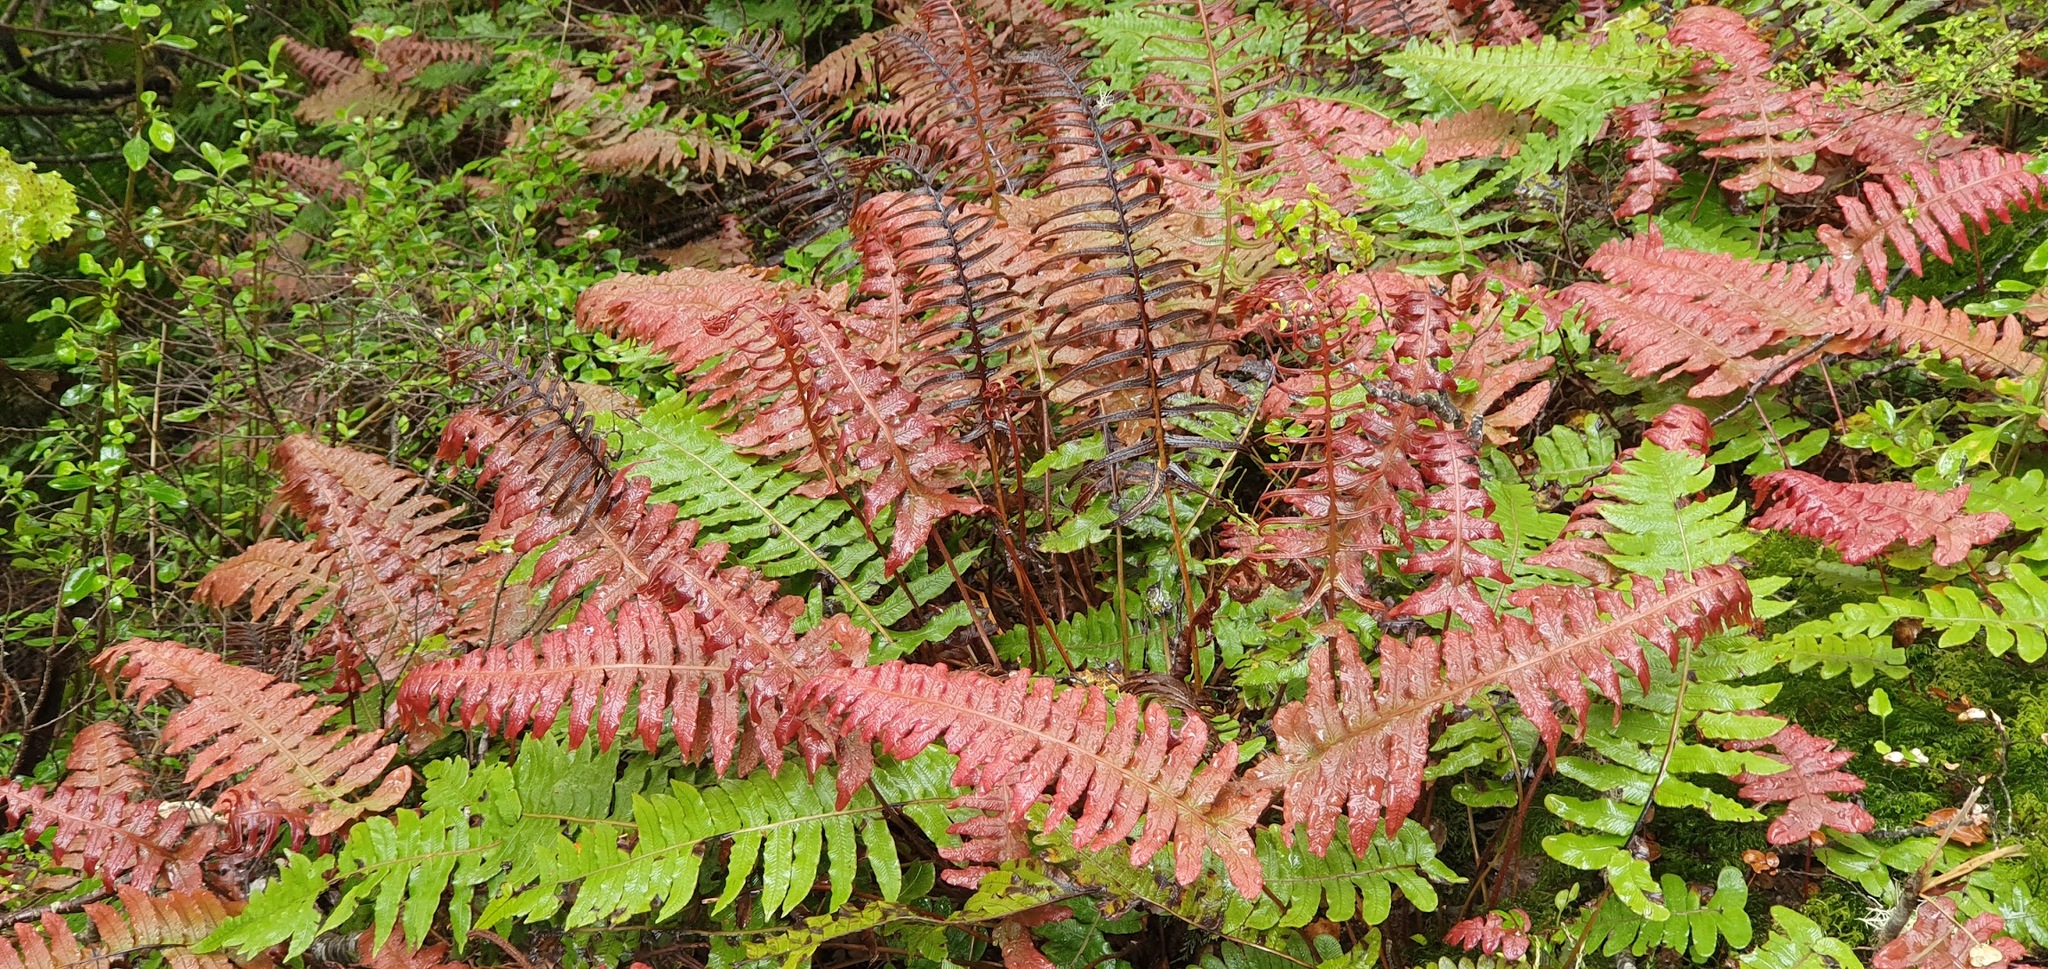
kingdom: Plantae
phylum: Tracheophyta
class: Polypodiopsida
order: Polypodiales
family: Blechnaceae
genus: Cranfillia
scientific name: Cranfillia deltoides
